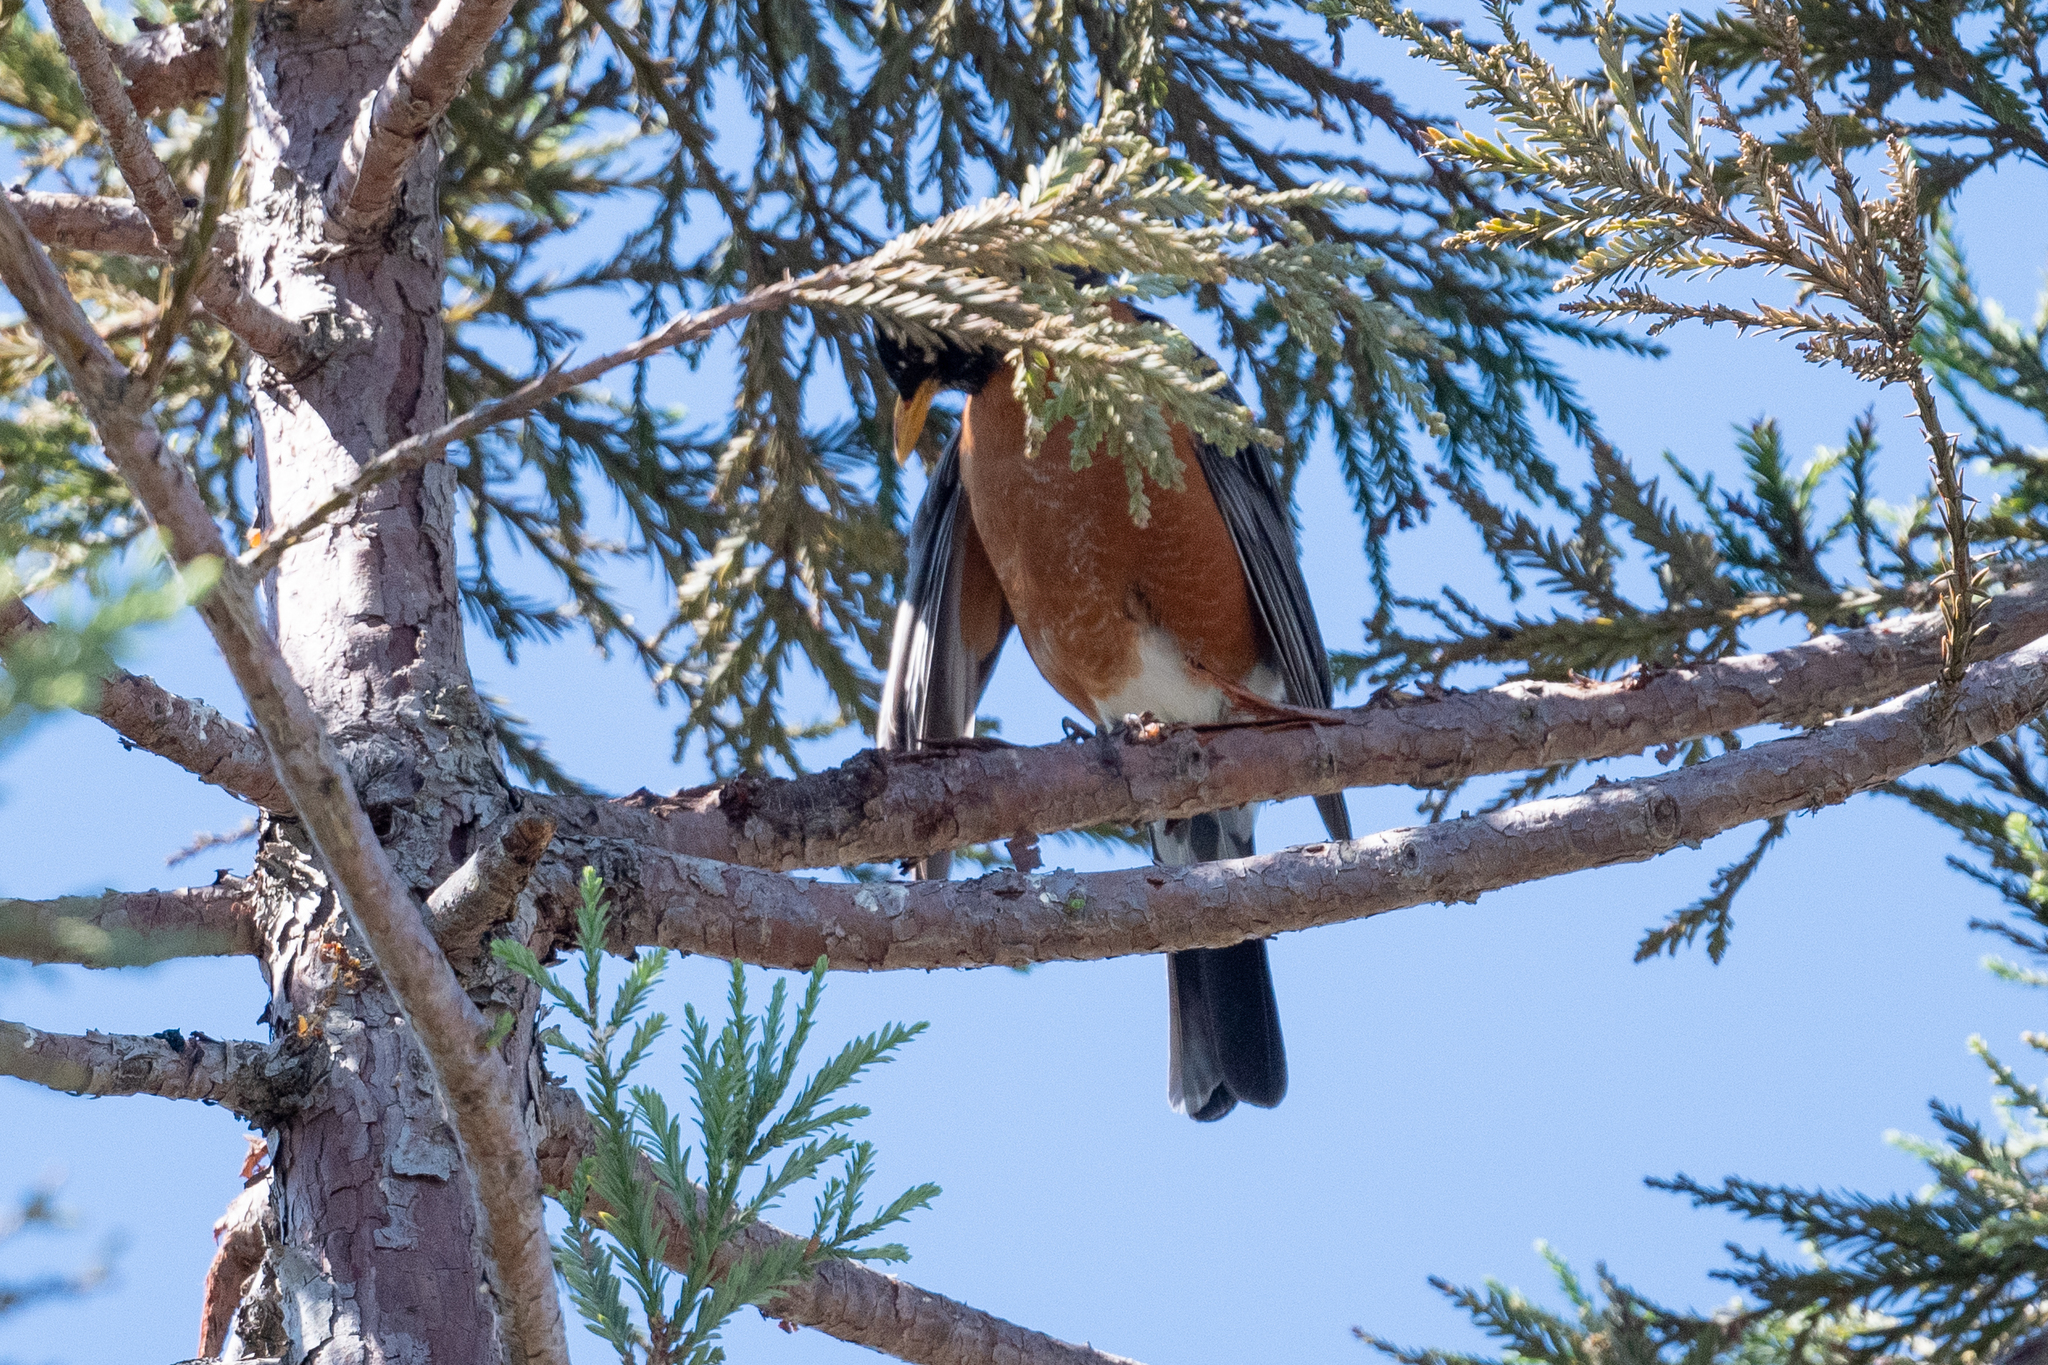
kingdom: Animalia
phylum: Chordata
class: Aves
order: Passeriformes
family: Turdidae
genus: Turdus
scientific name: Turdus migratorius
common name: American robin
